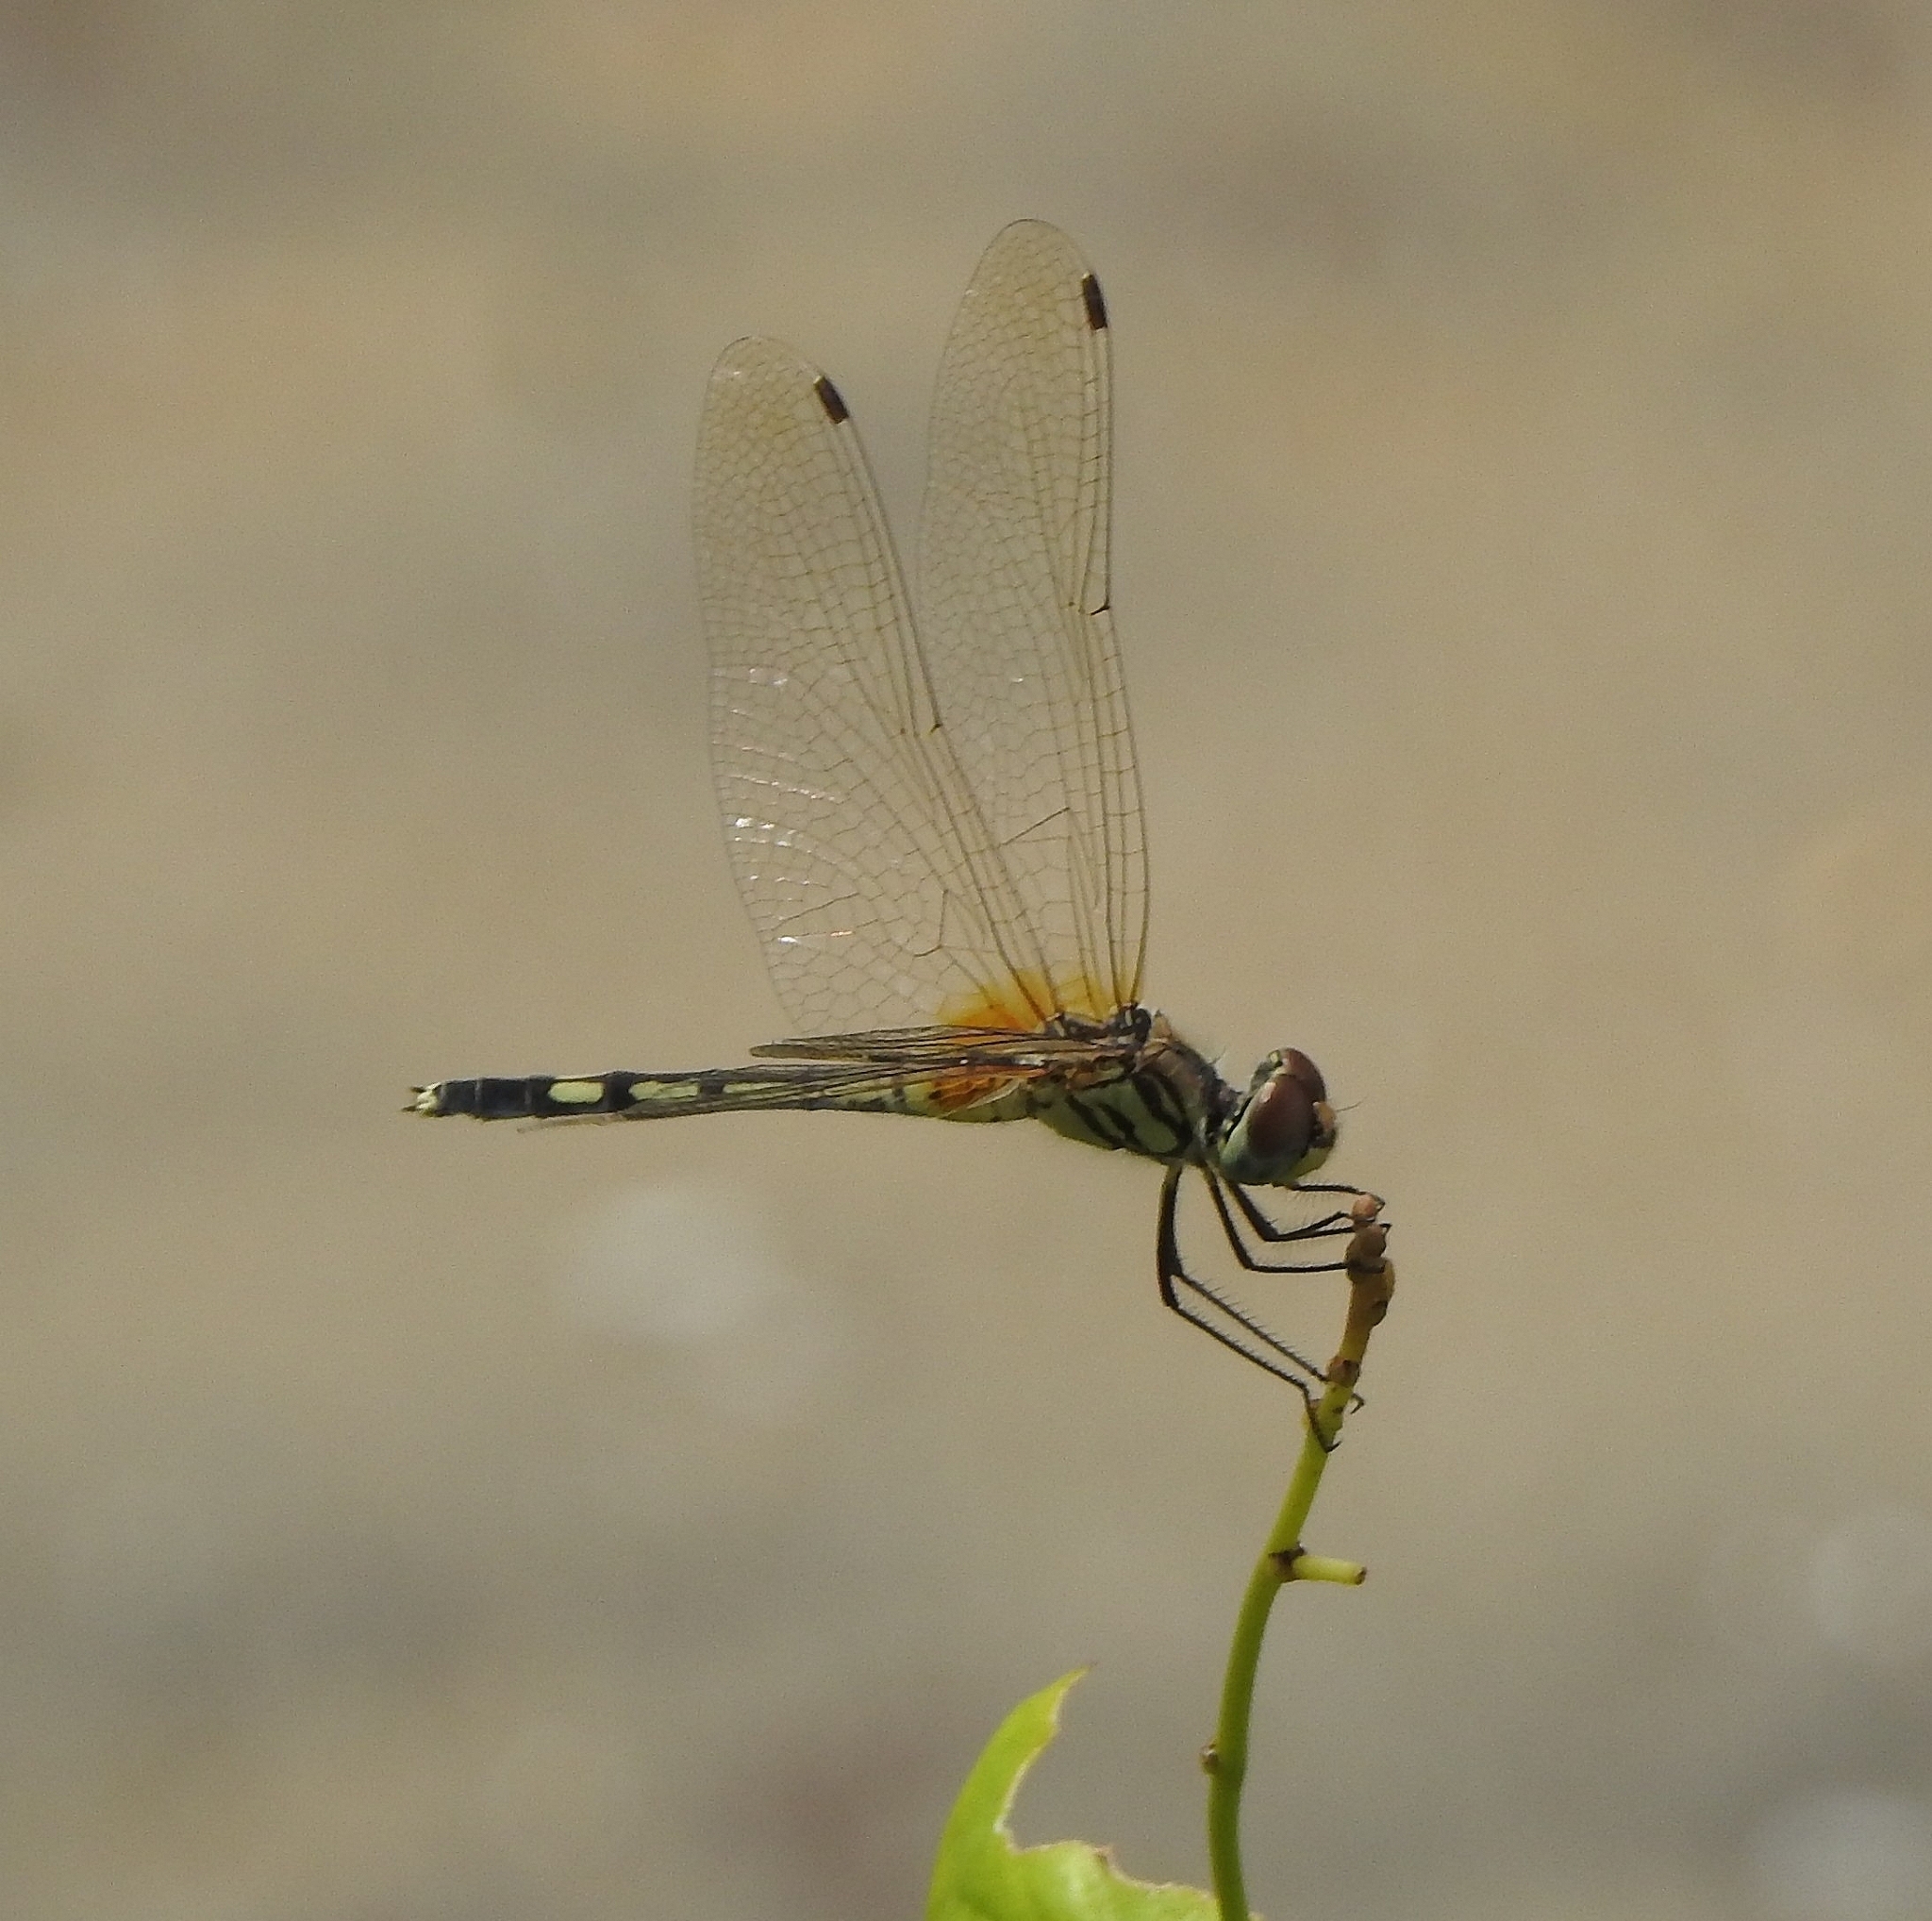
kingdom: Animalia
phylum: Arthropoda
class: Insecta
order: Odonata
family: Libellulidae
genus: Trithemis
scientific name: Trithemis pallidinervis
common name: Dancing dropwing
